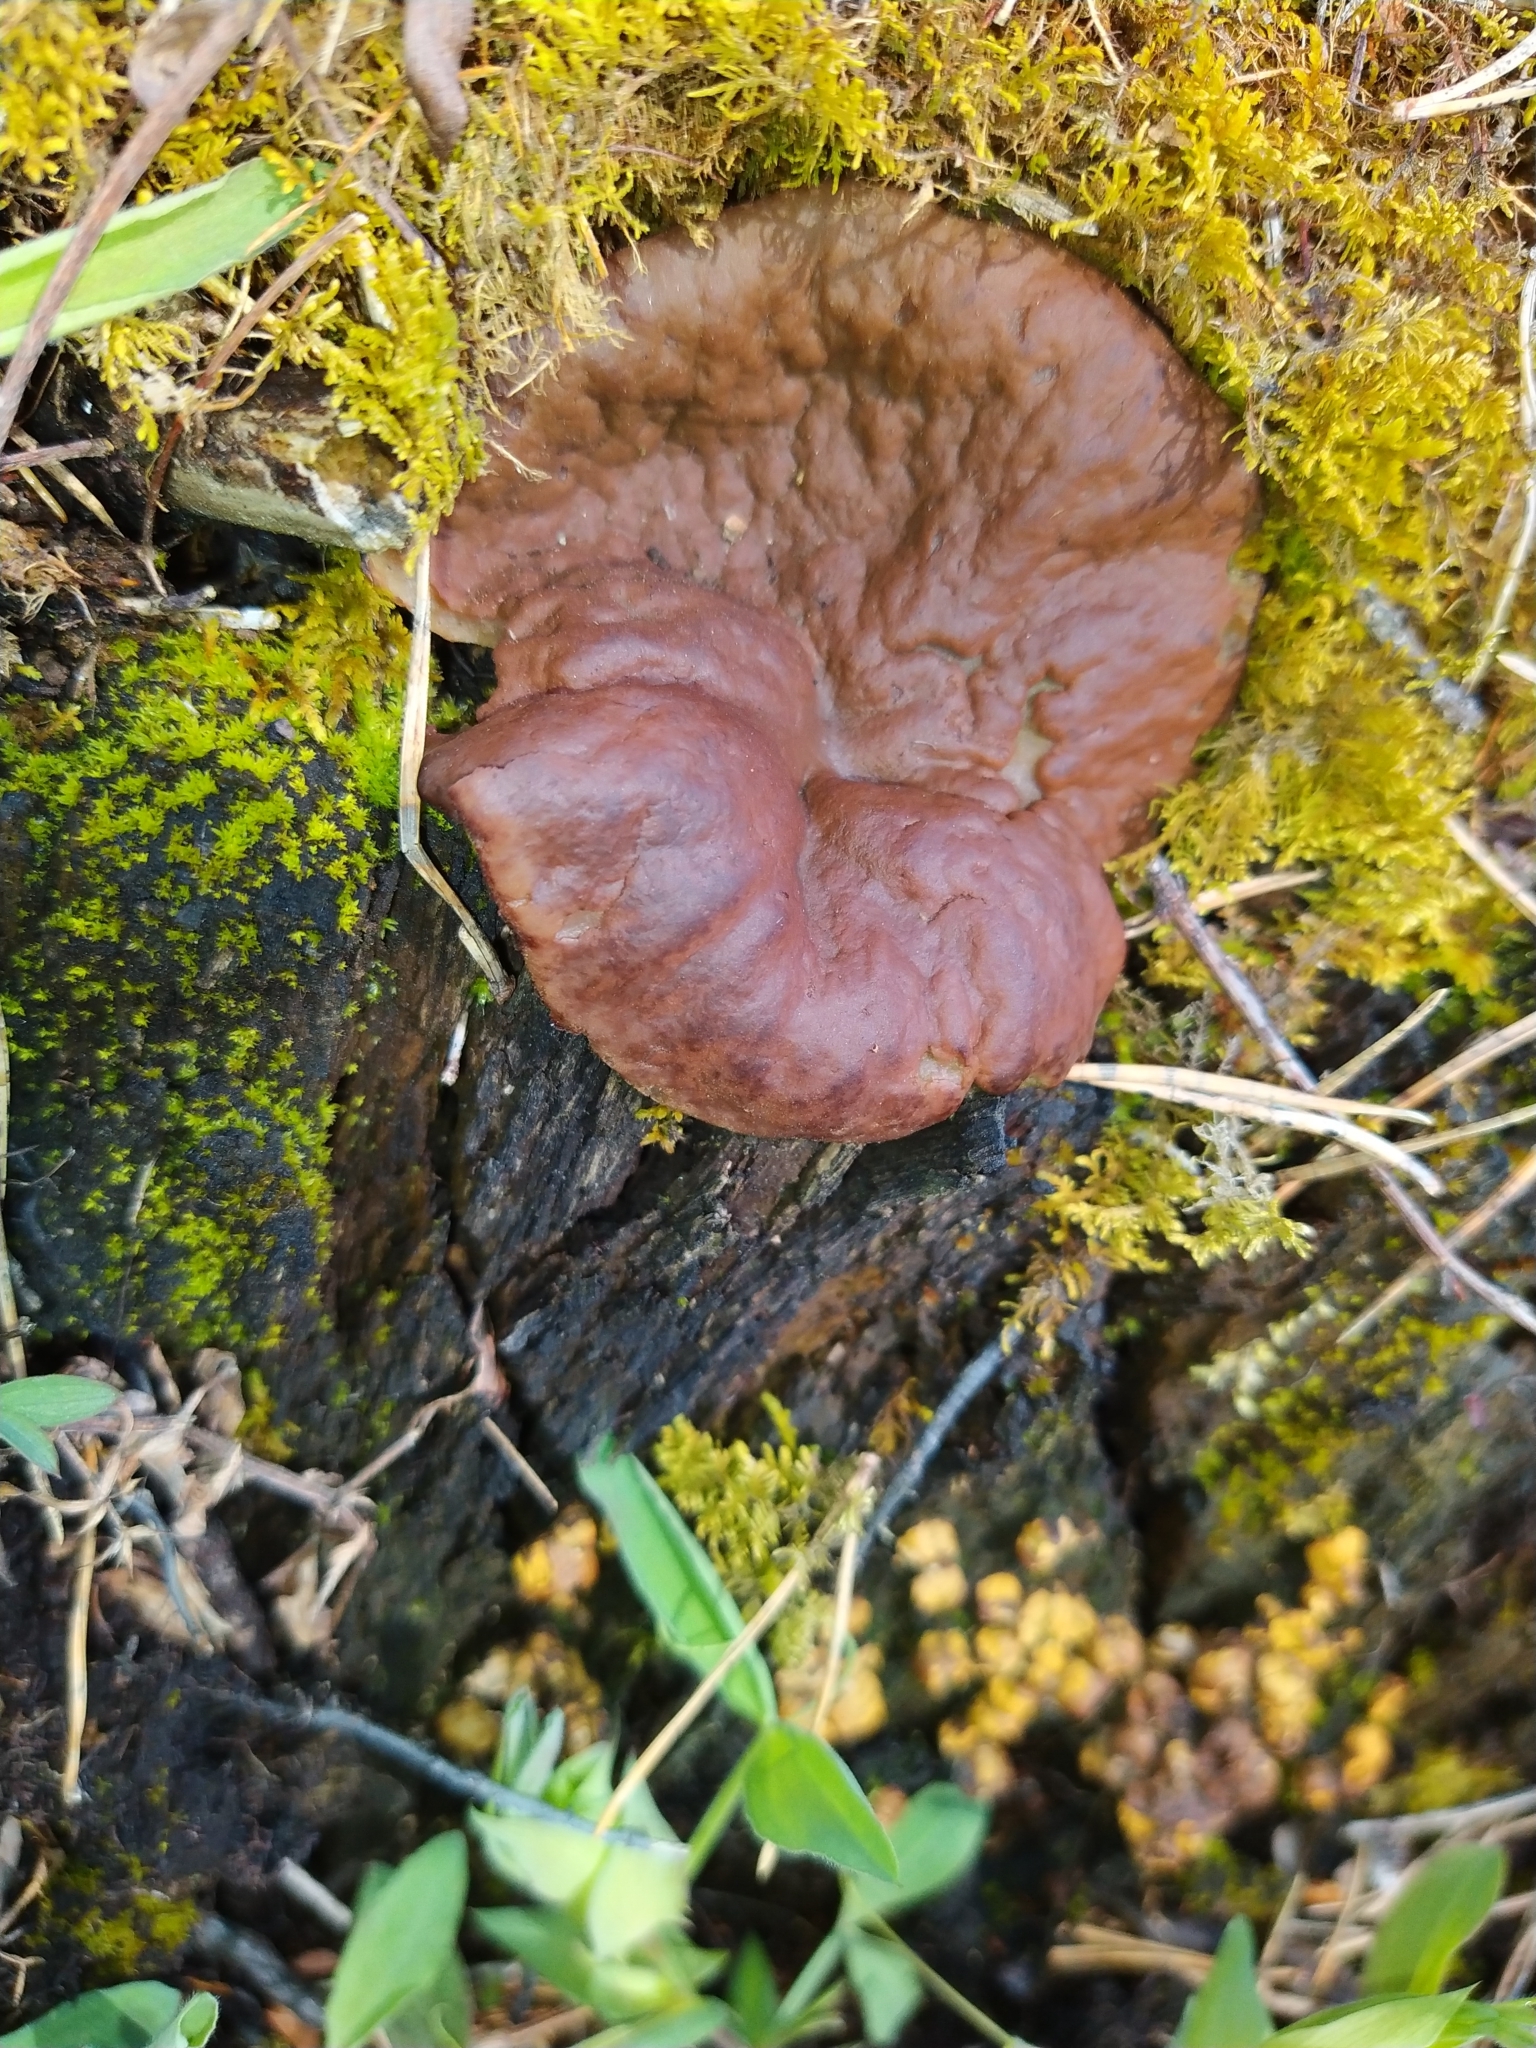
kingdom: Fungi
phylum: Ascomycota
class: Pezizomycetes
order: Pezizales
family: Discinaceae
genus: Discina
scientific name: Discina ancilis
